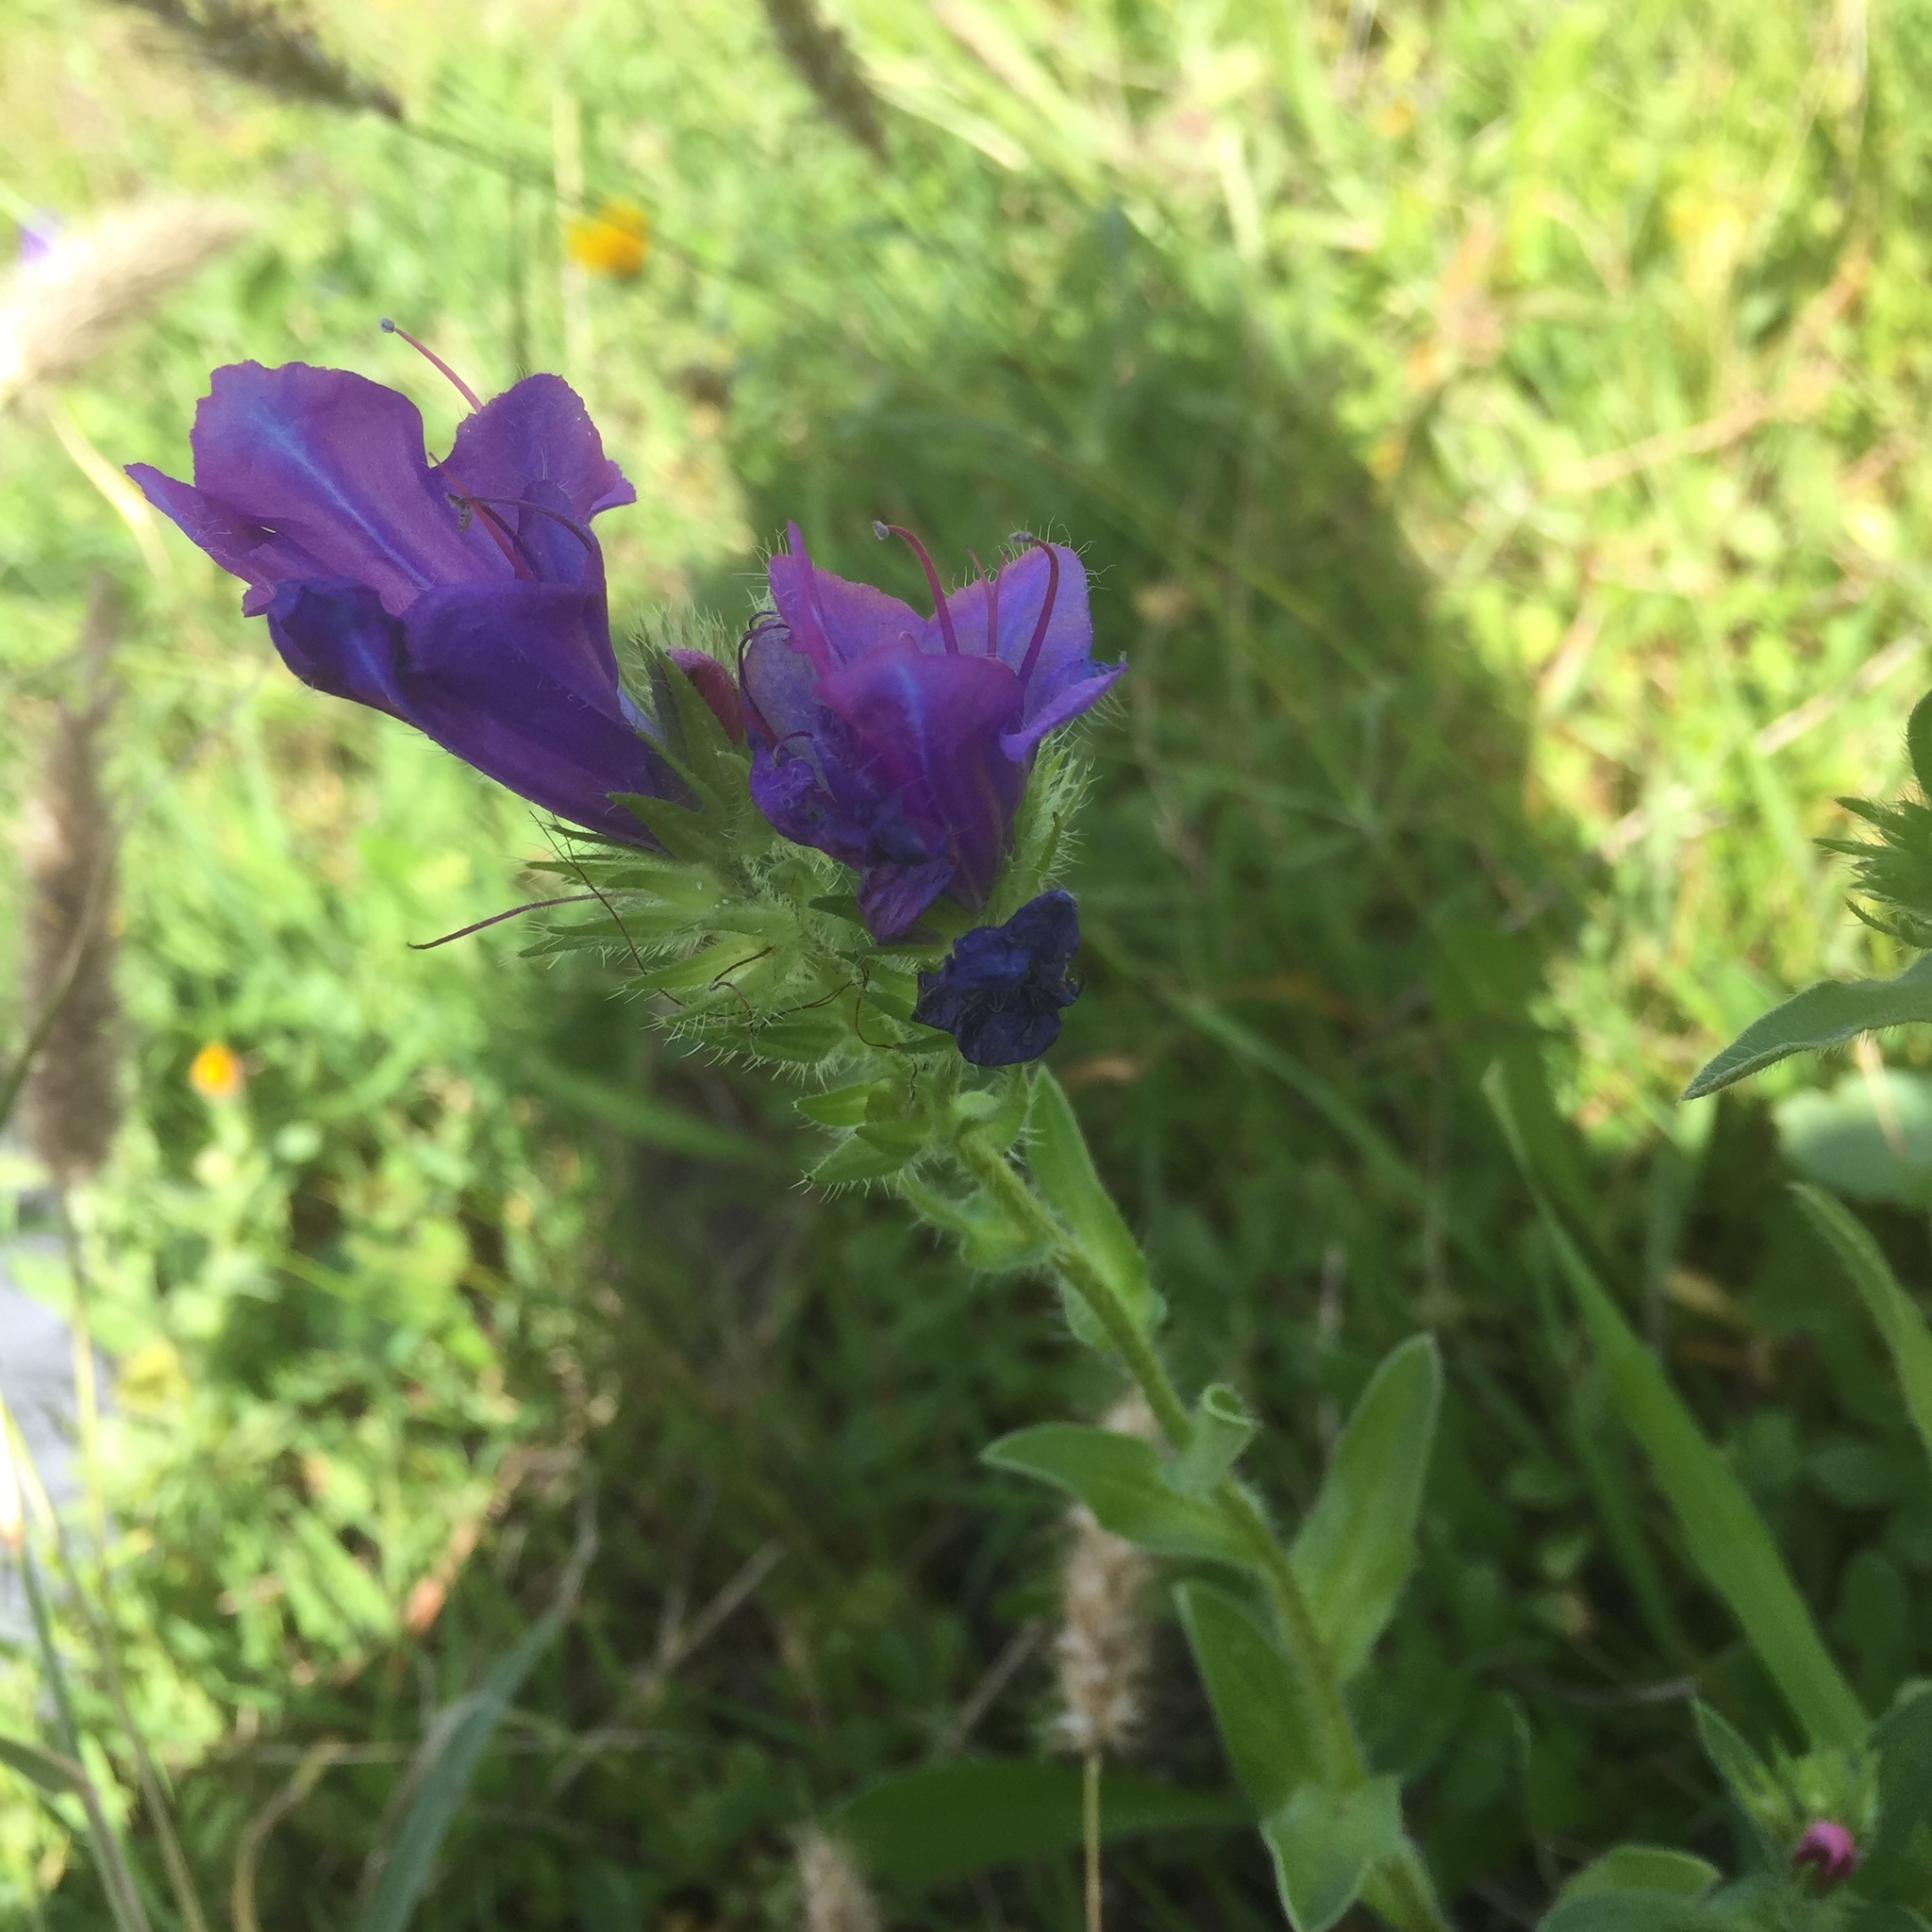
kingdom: Plantae
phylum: Tracheophyta
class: Magnoliopsida
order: Boraginales
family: Boraginaceae
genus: Echium
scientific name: Echium plantagineum
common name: Purple viper's-bugloss
